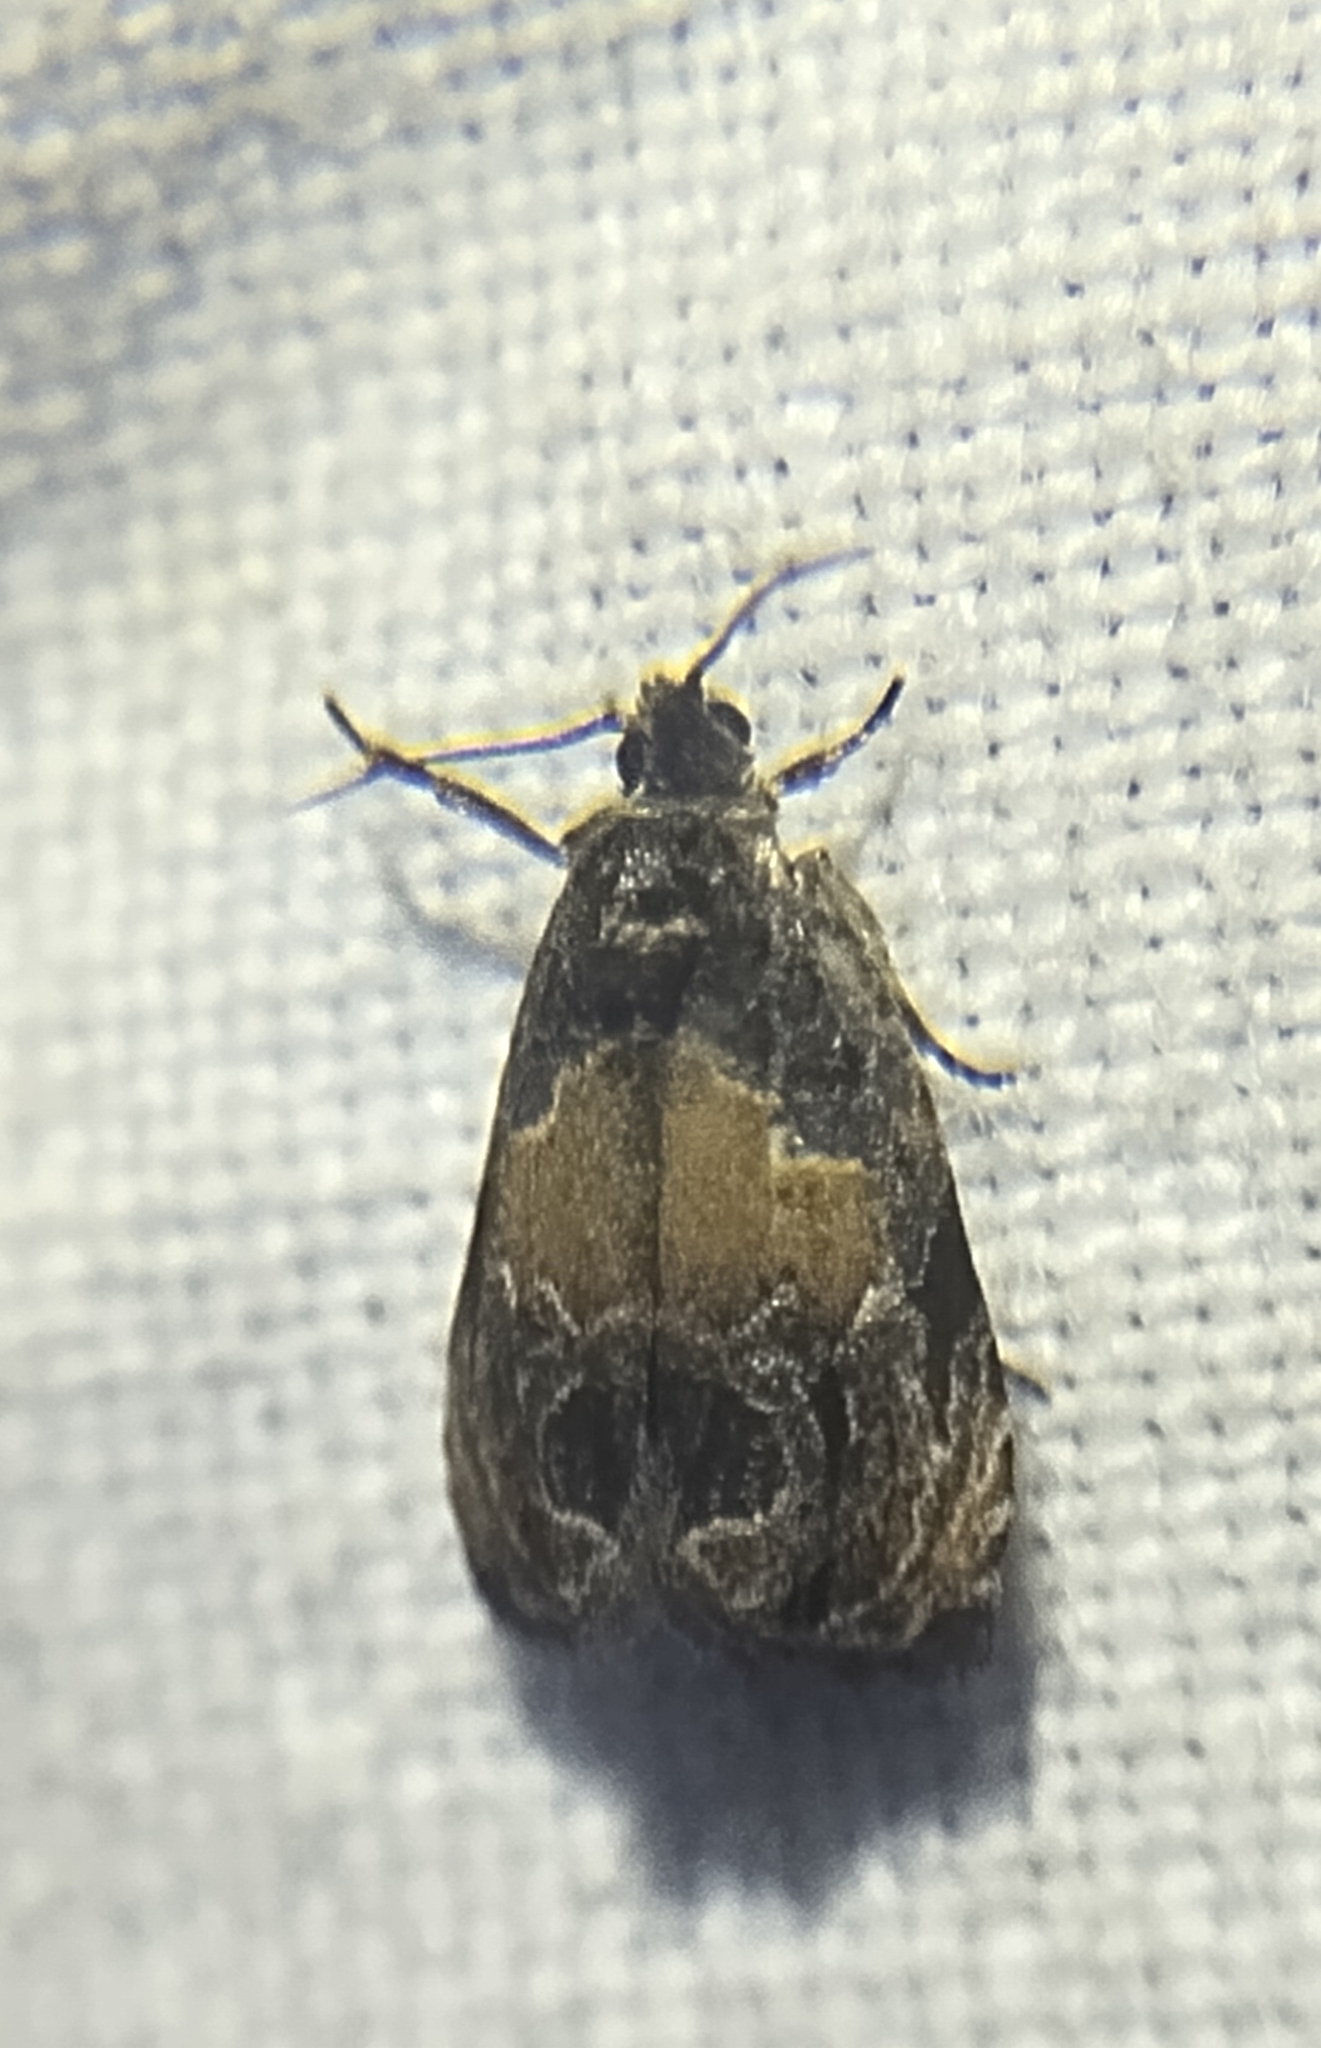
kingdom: Animalia
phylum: Arthropoda
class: Insecta
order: Lepidoptera
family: Tortricidae
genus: Olethreutes
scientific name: Olethreutes osmundana
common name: Fern olethreutes moth
